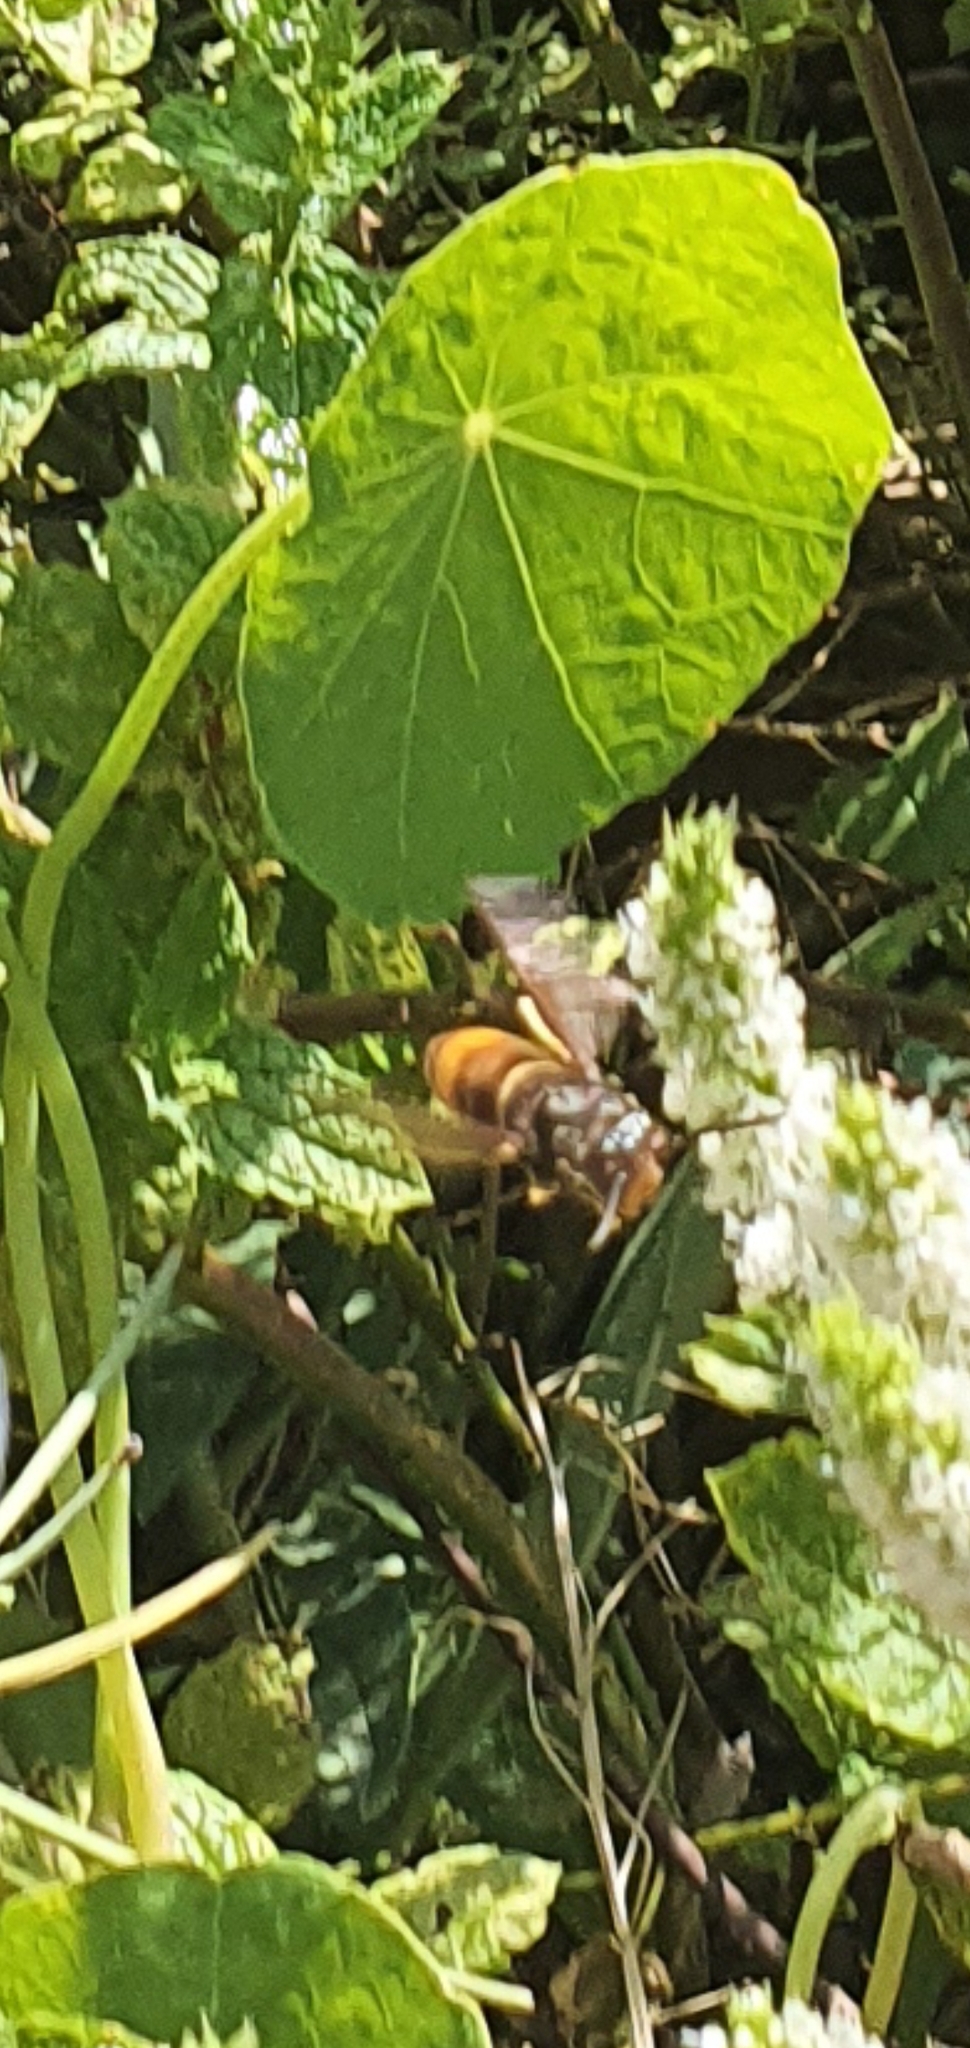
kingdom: Animalia
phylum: Arthropoda
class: Insecta
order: Hymenoptera
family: Vespidae
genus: Vespa
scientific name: Vespa velutina
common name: Asian hornet
